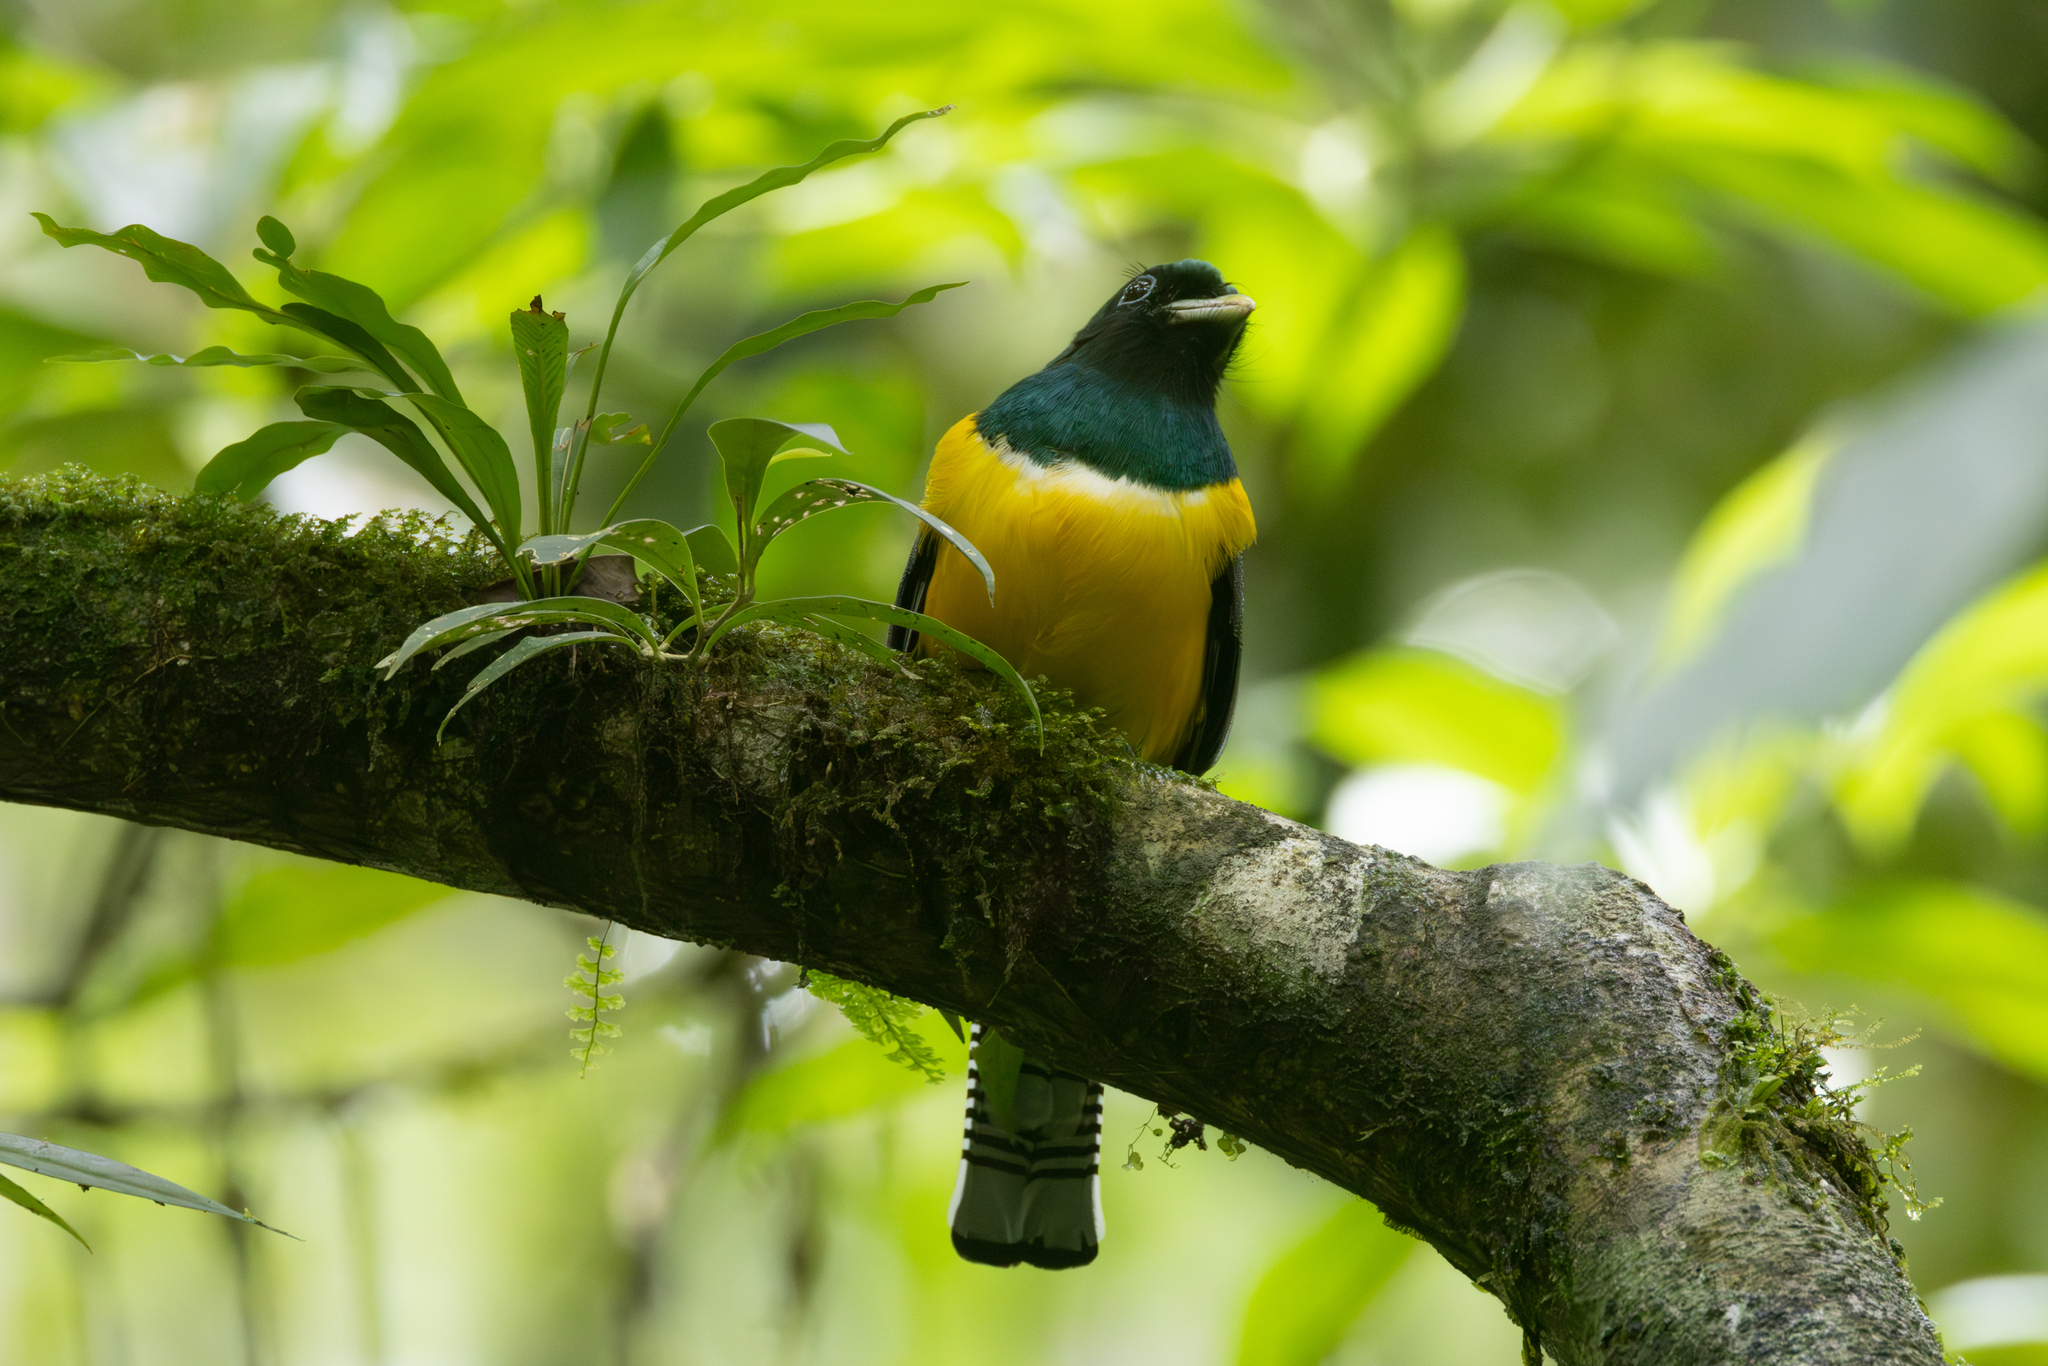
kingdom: Animalia
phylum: Chordata
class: Aves
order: Trogoniformes
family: Trogonidae
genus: Trogon
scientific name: Trogon rufus
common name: Black-throated trogon
